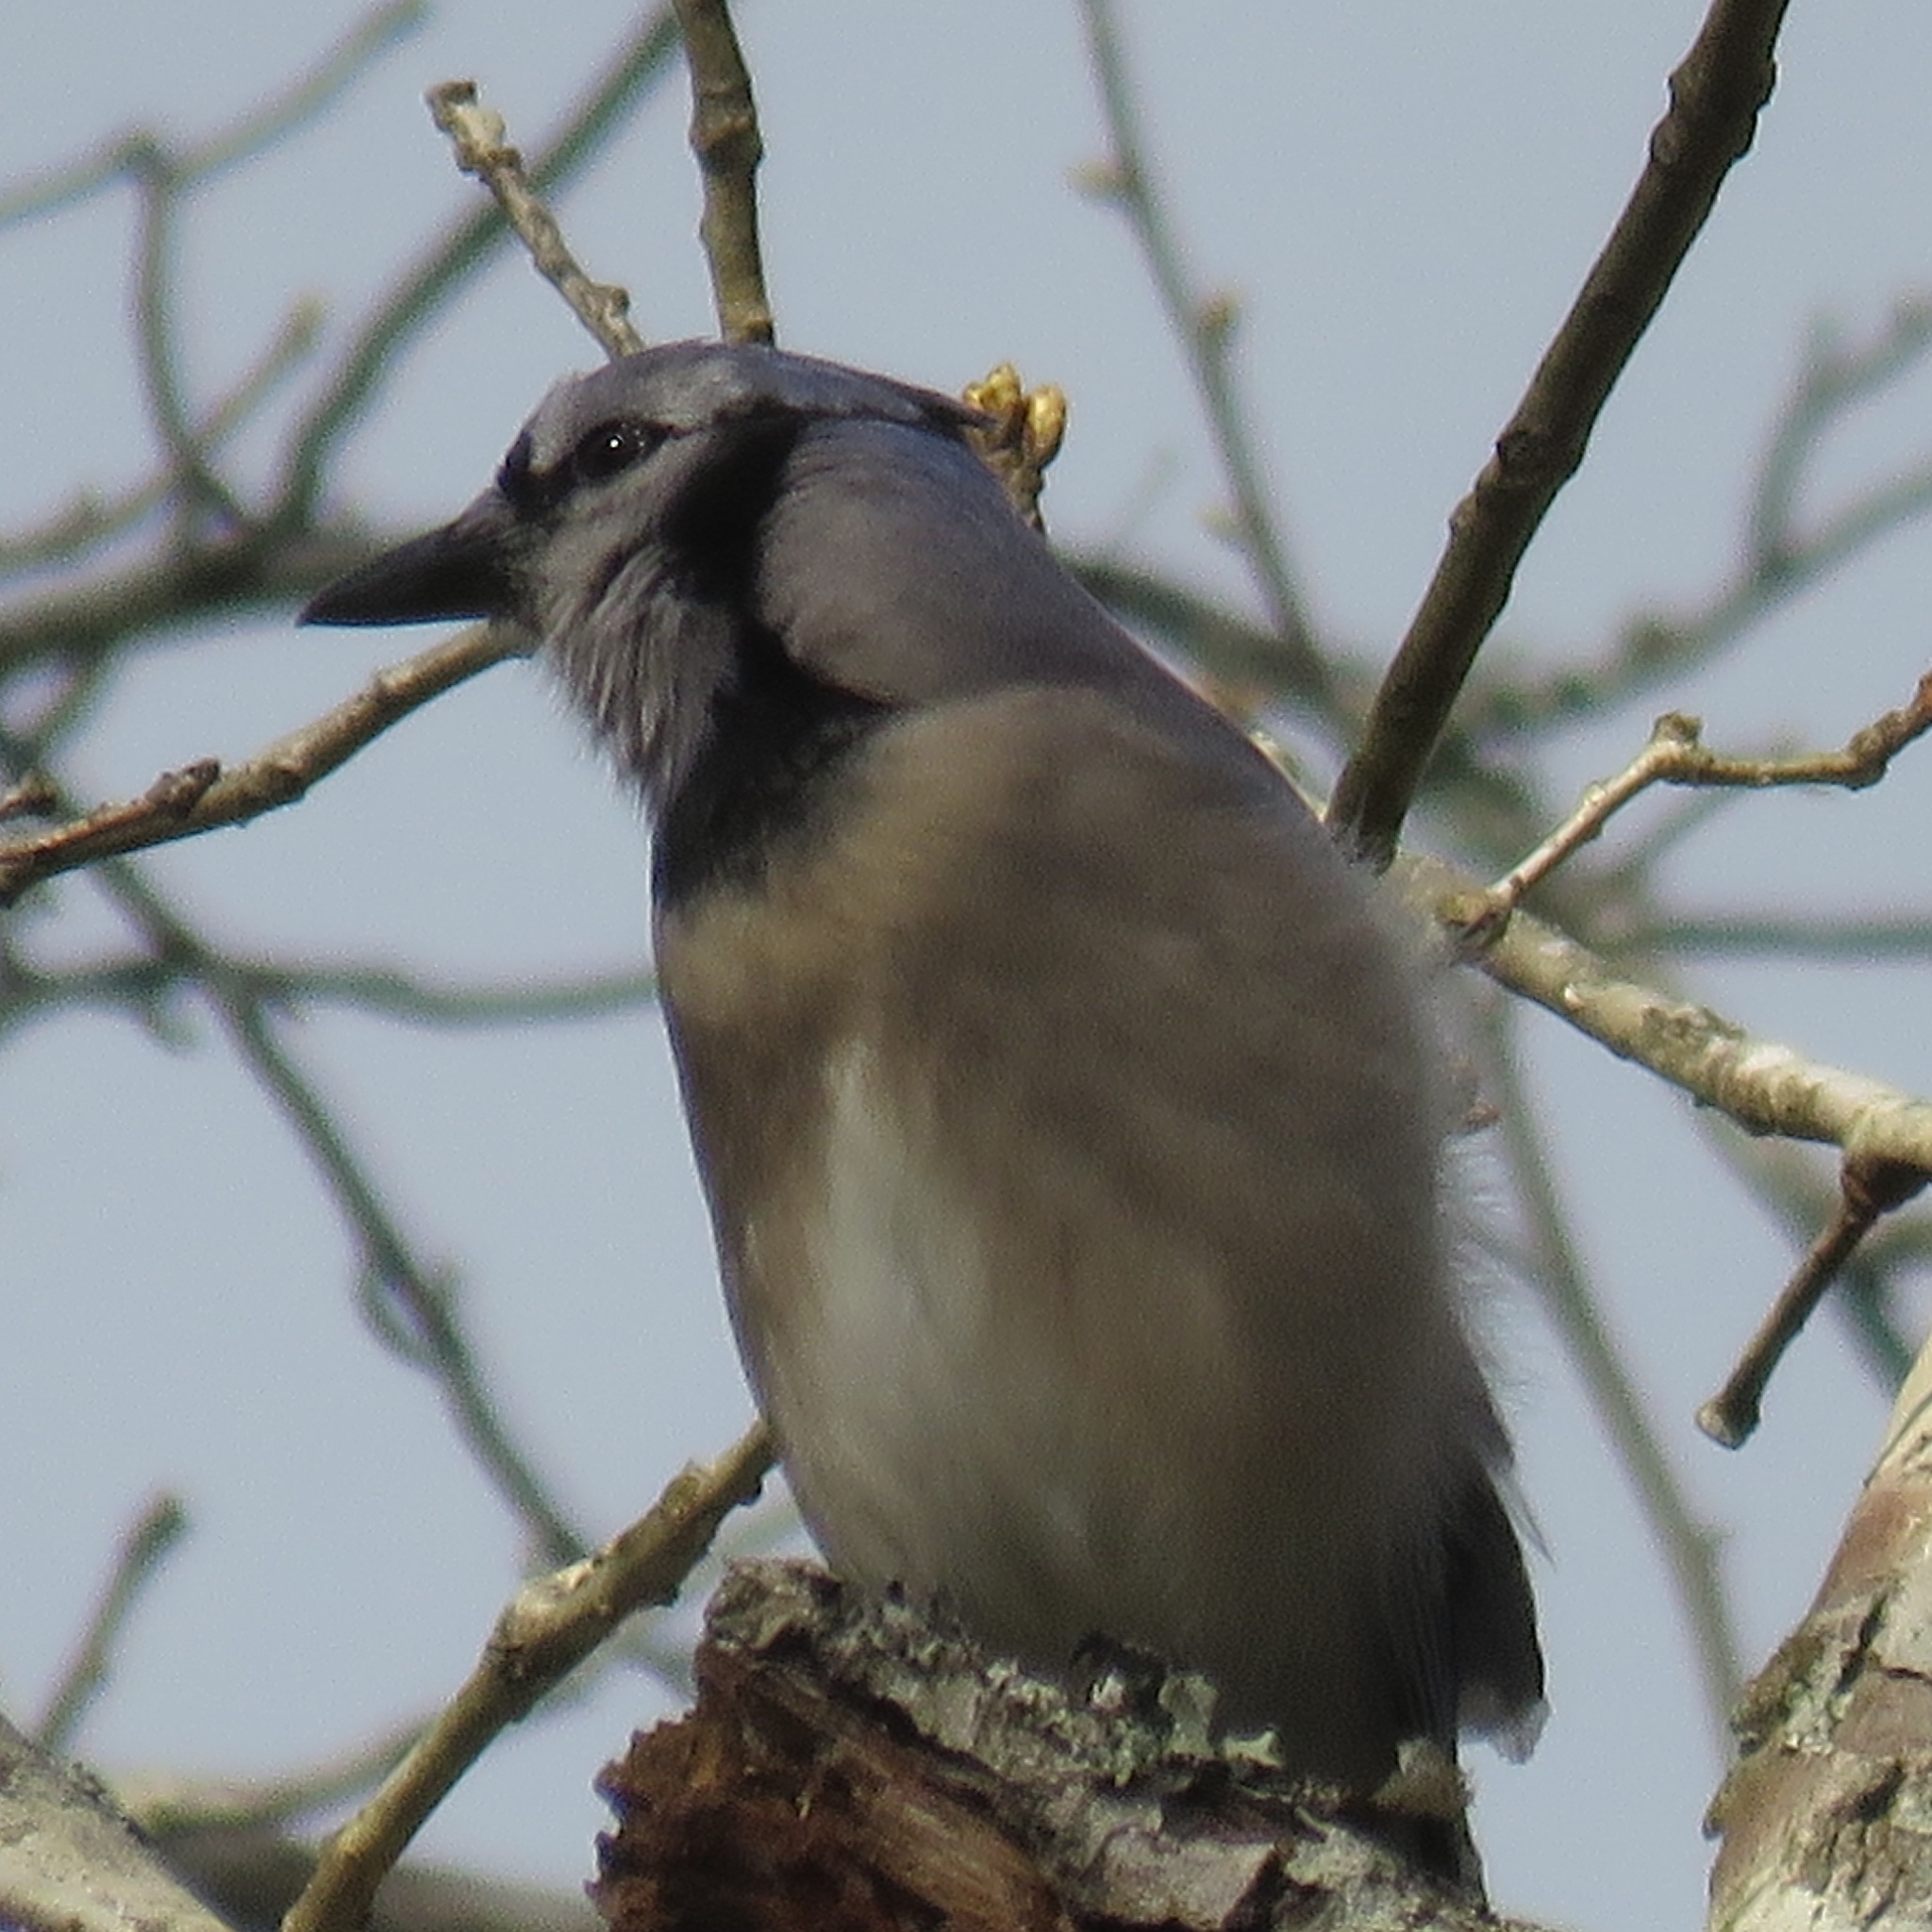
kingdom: Animalia
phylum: Chordata
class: Aves
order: Passeriformes
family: Corvidae
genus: Cyanocitta
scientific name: Cyanocitta cristata
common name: Blue jay
